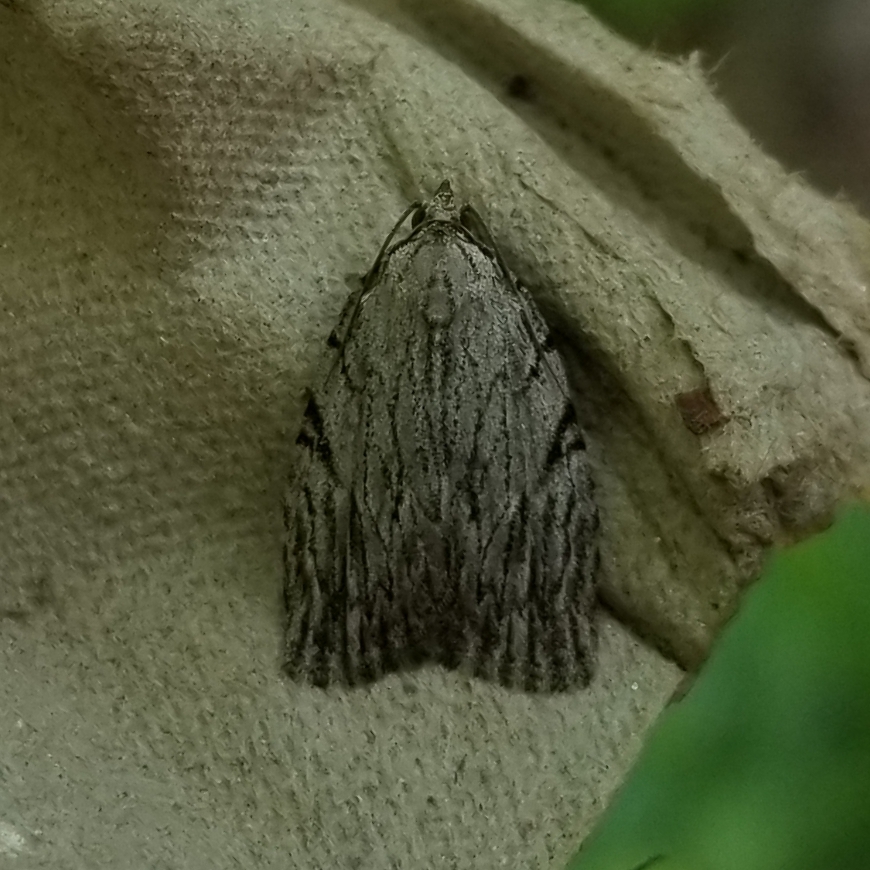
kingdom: Animalia
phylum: Arthropoda
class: Insecta
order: Lepidoptera
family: Noctuidae
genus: Balsa
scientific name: Balsa tristrigella
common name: Three-lined balsa moth
